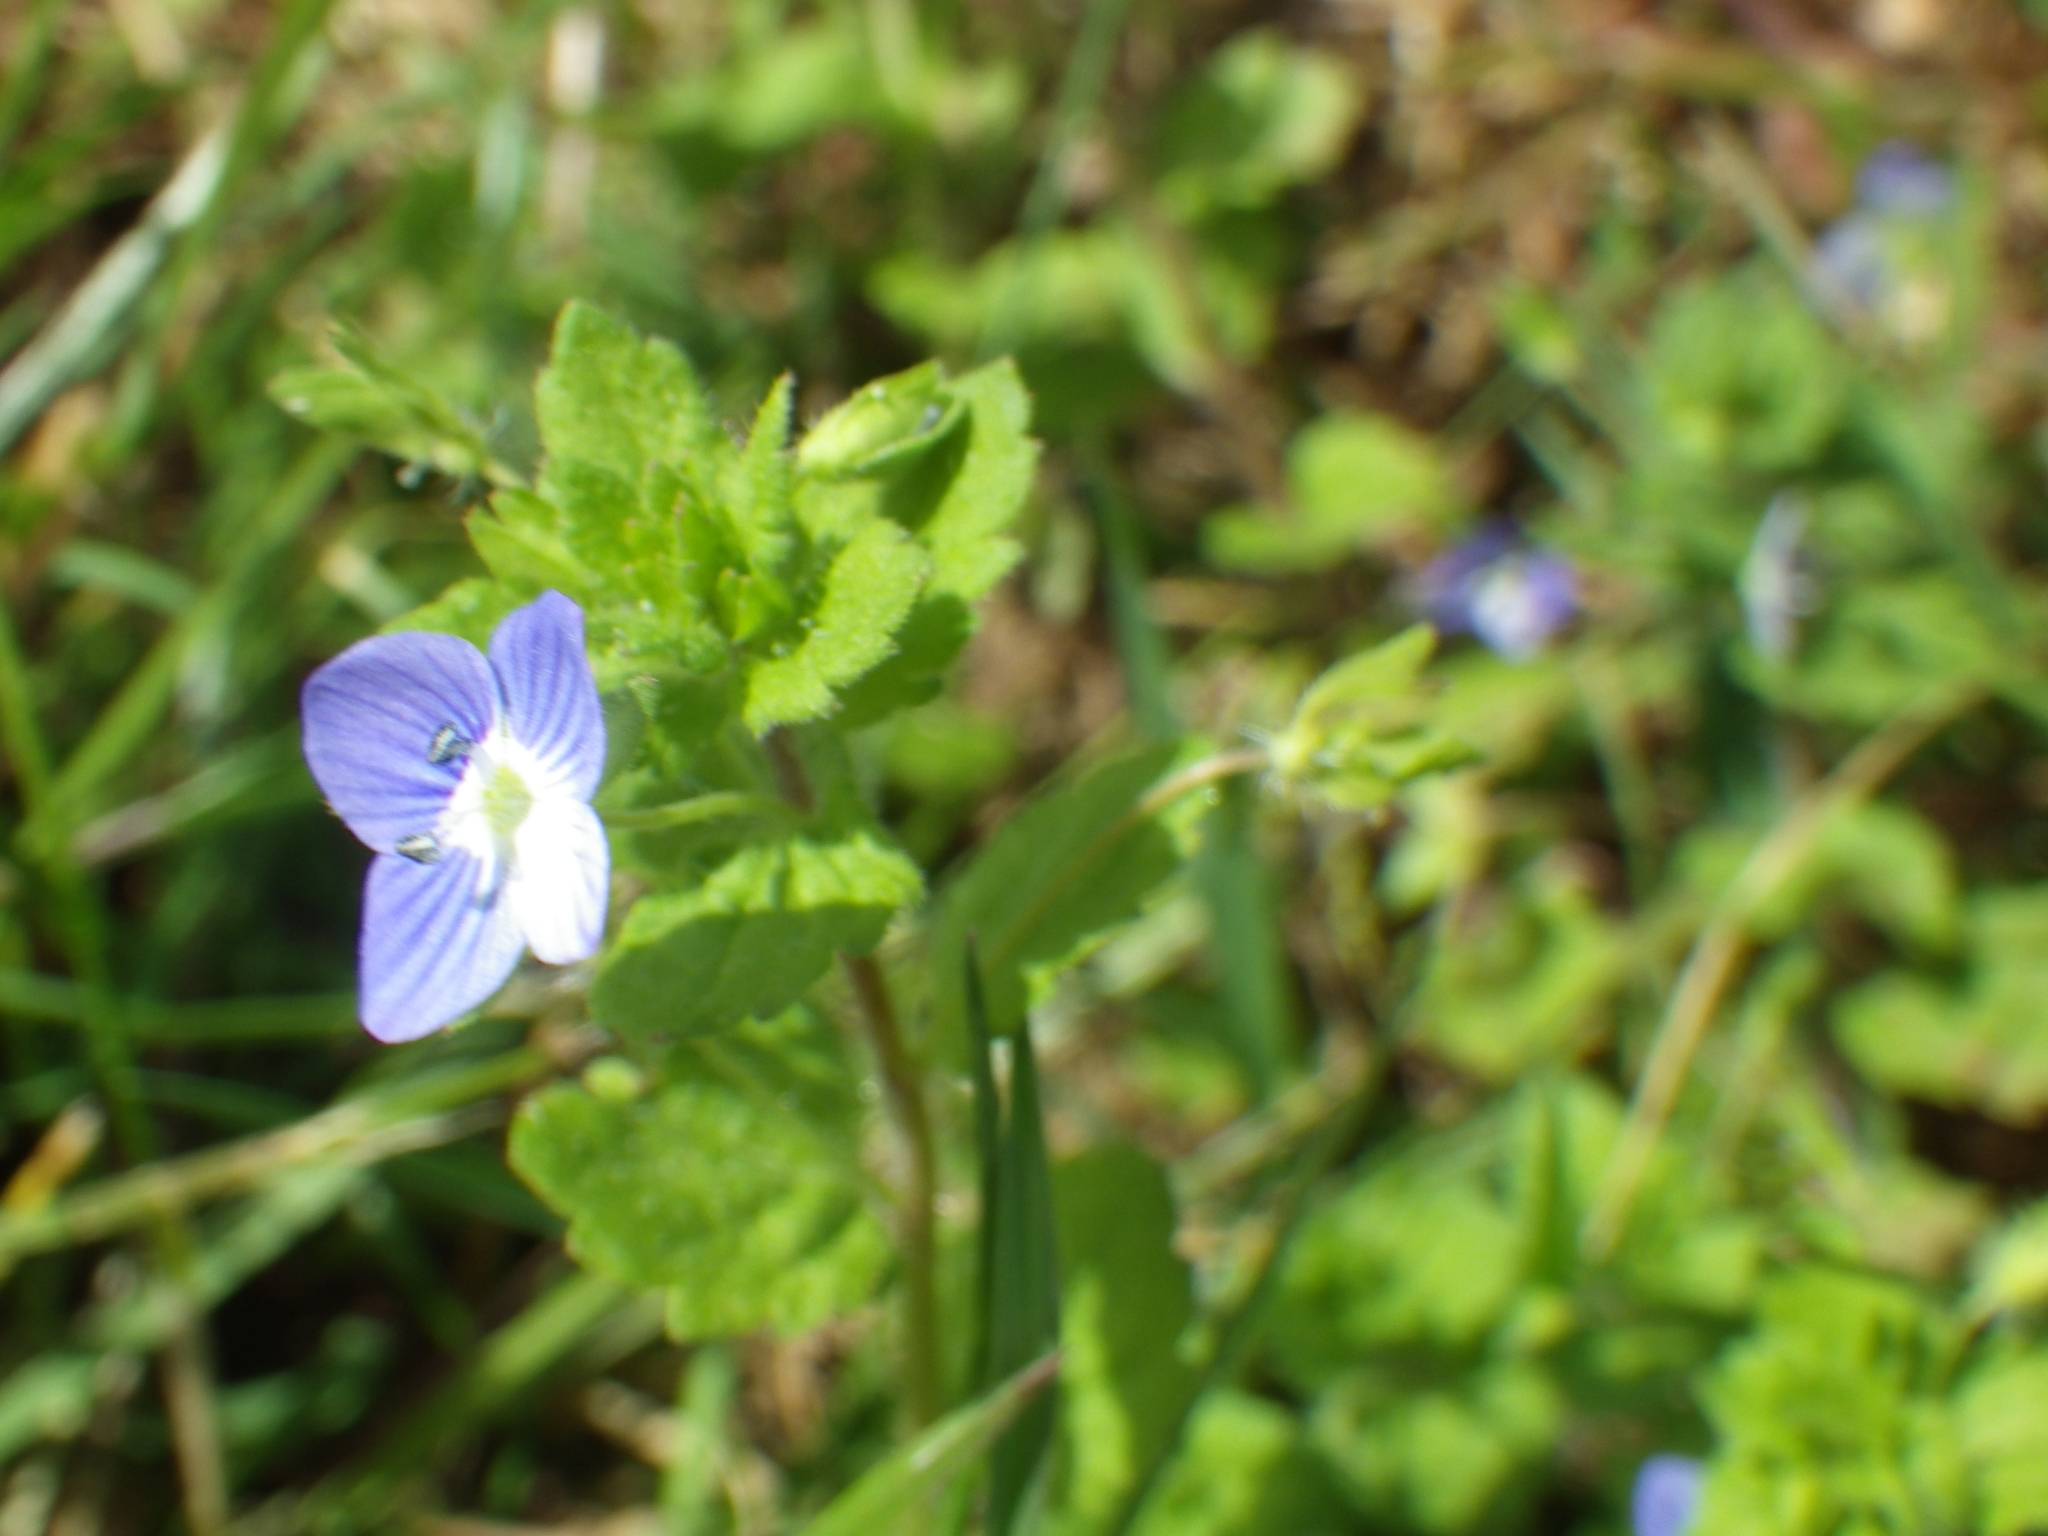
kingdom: Plantae
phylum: Tracheophyta
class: Magnoliopsida
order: Lamiales
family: Plantaginaceae
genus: Veronica
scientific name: Veronica persica
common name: Common field-speedwell
